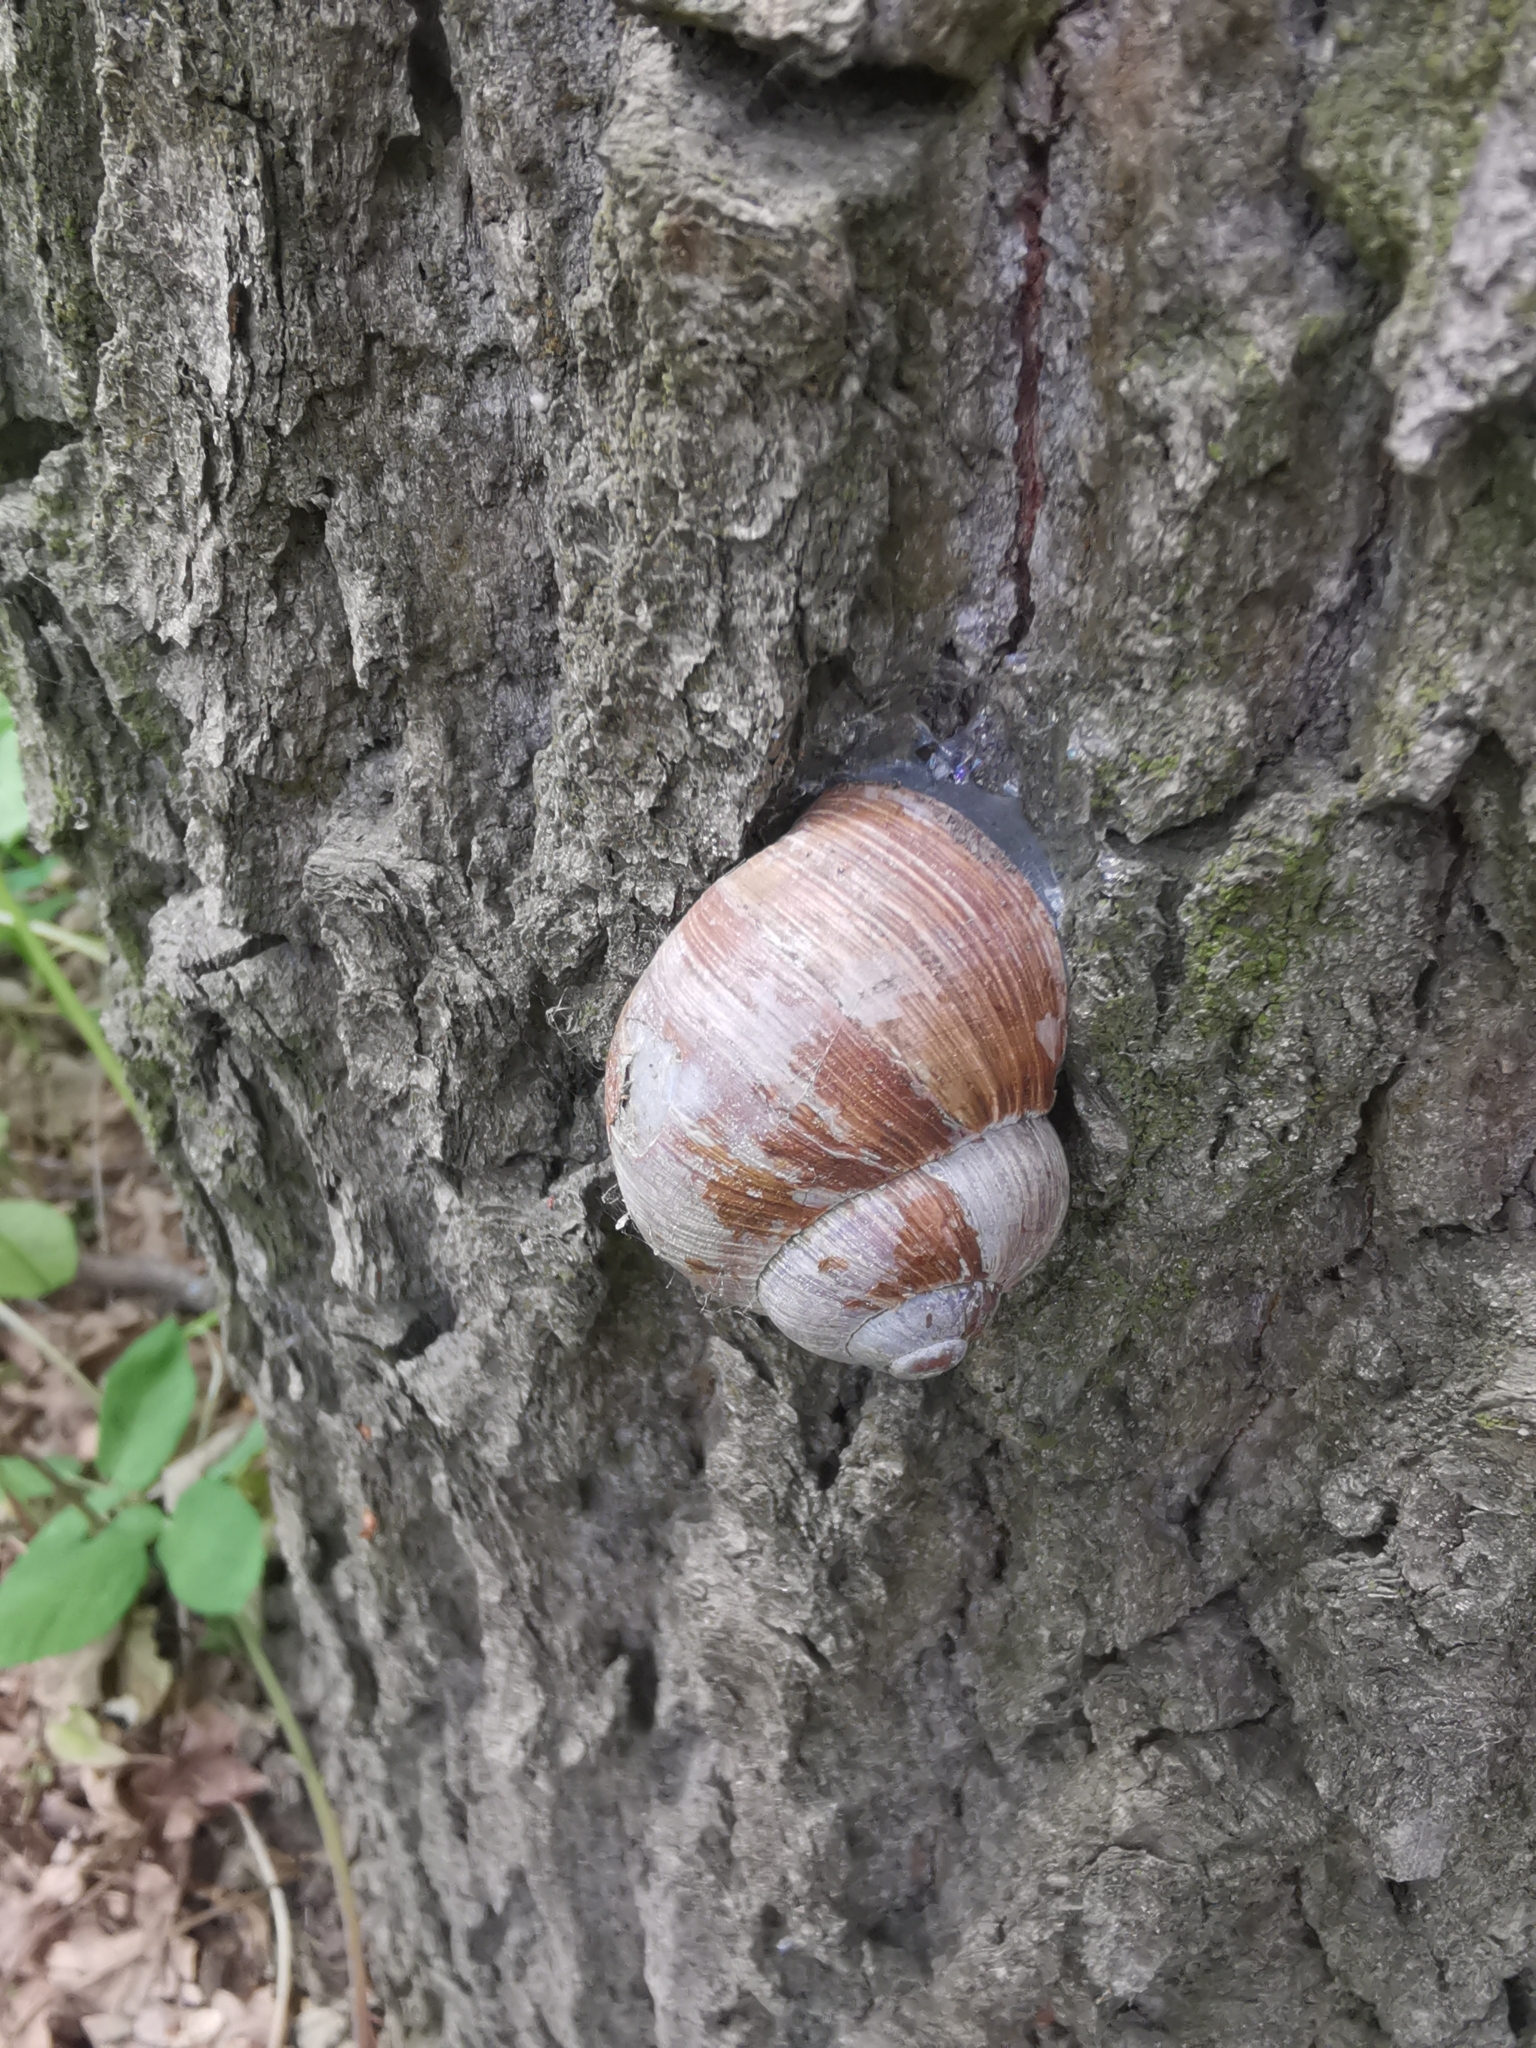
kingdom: Animalia
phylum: Mollusca
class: Gastropoda
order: Stylommatophora
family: Helicidae
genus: Helix
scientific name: Helix pomatia
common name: Roman snail
